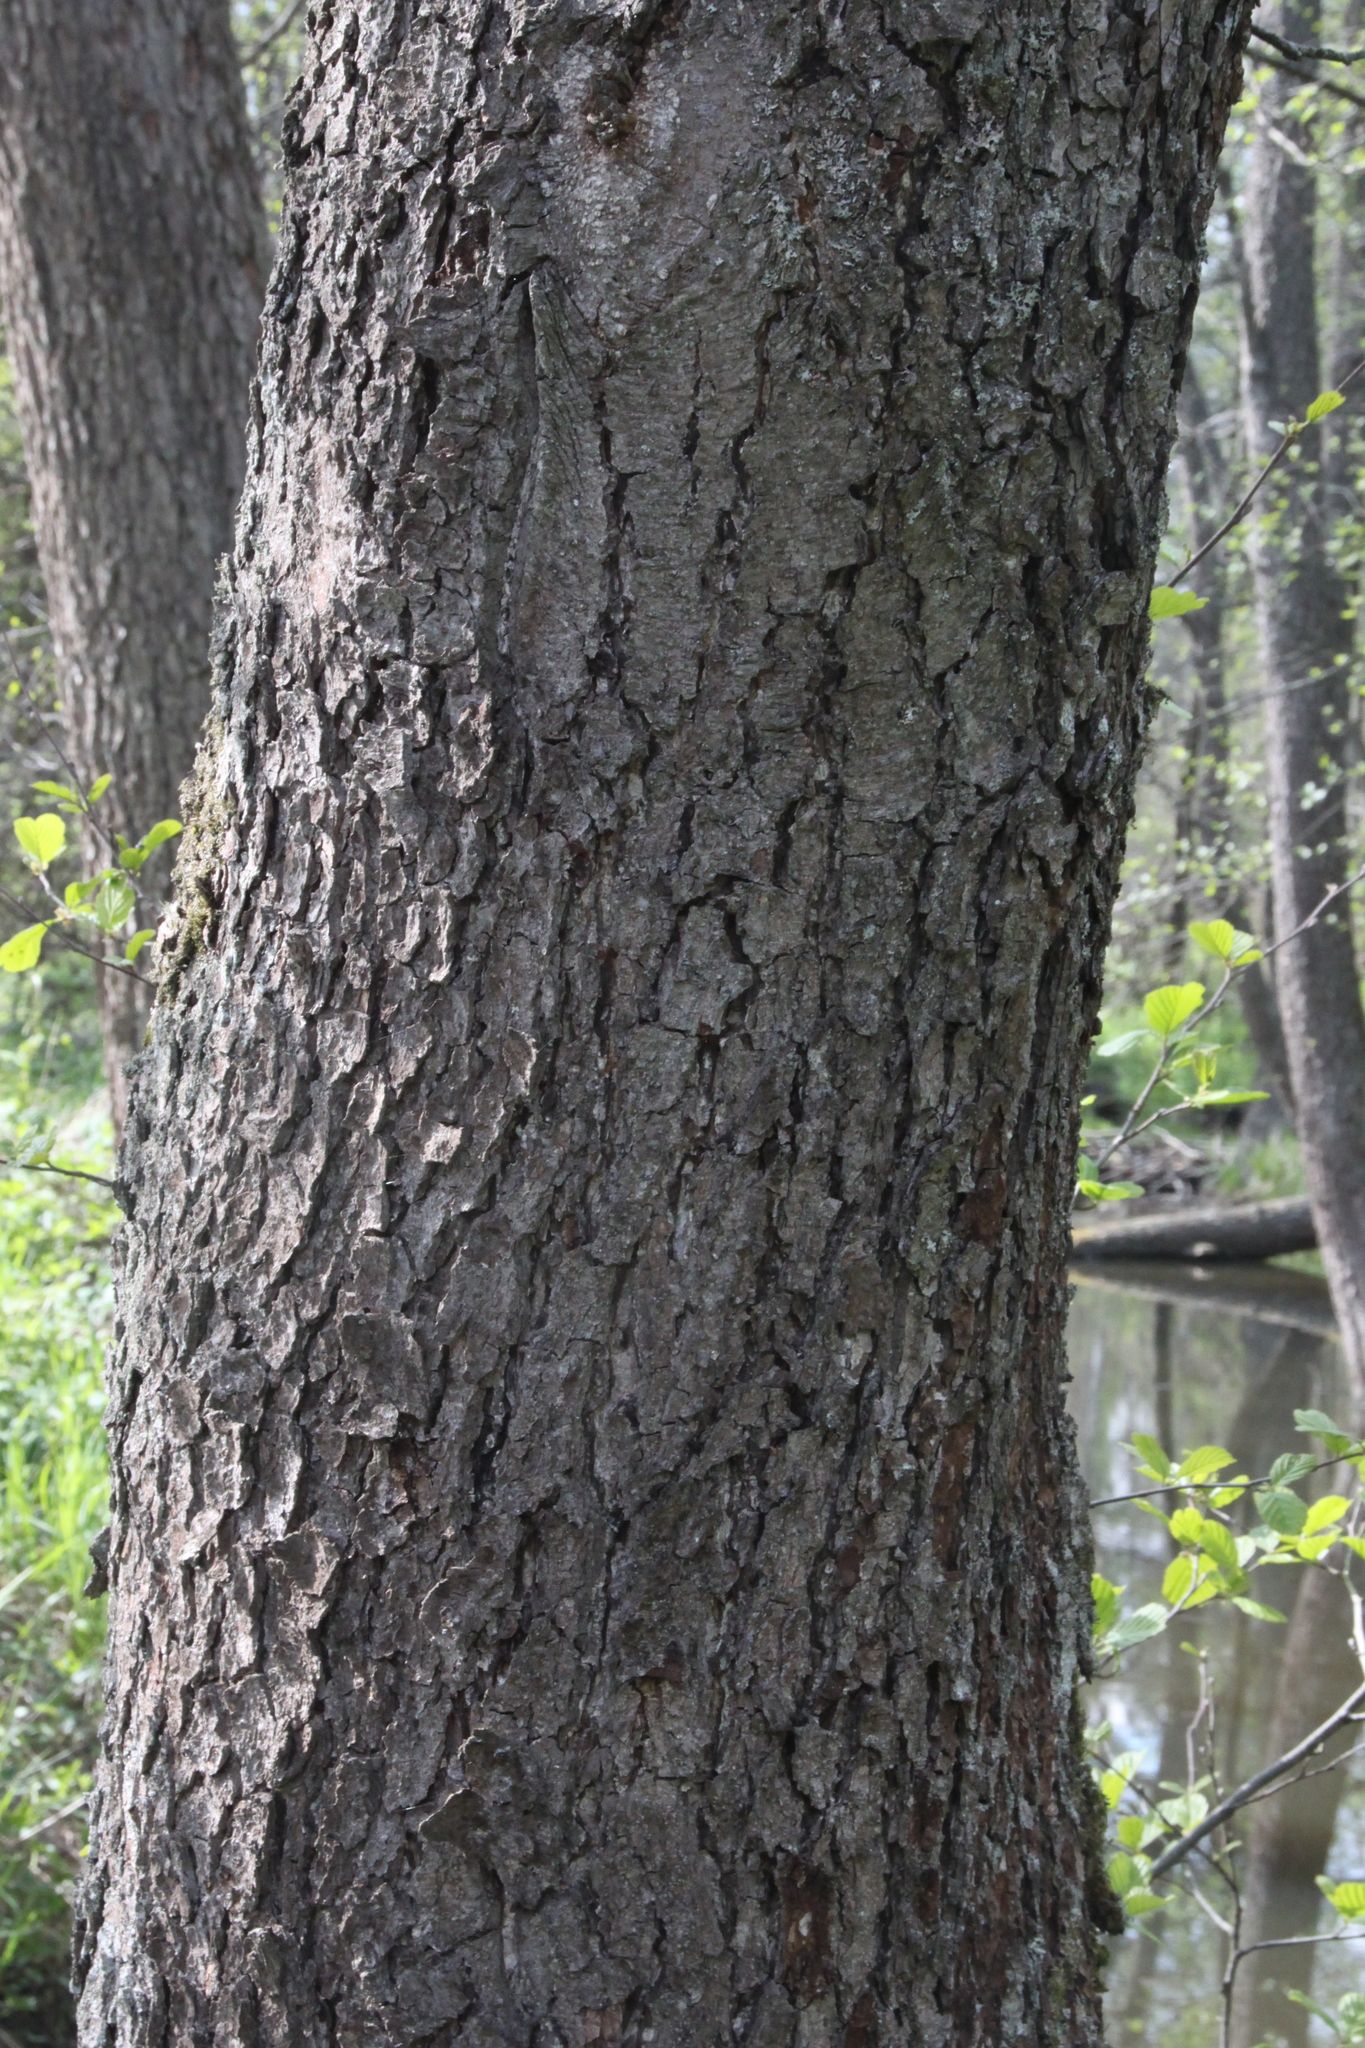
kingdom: Plantae
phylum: Tracheophyta
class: Magnoliopsida
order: Fagales
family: Betulaceae
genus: Alnus
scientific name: Alnus glutinosa
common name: Black alder
